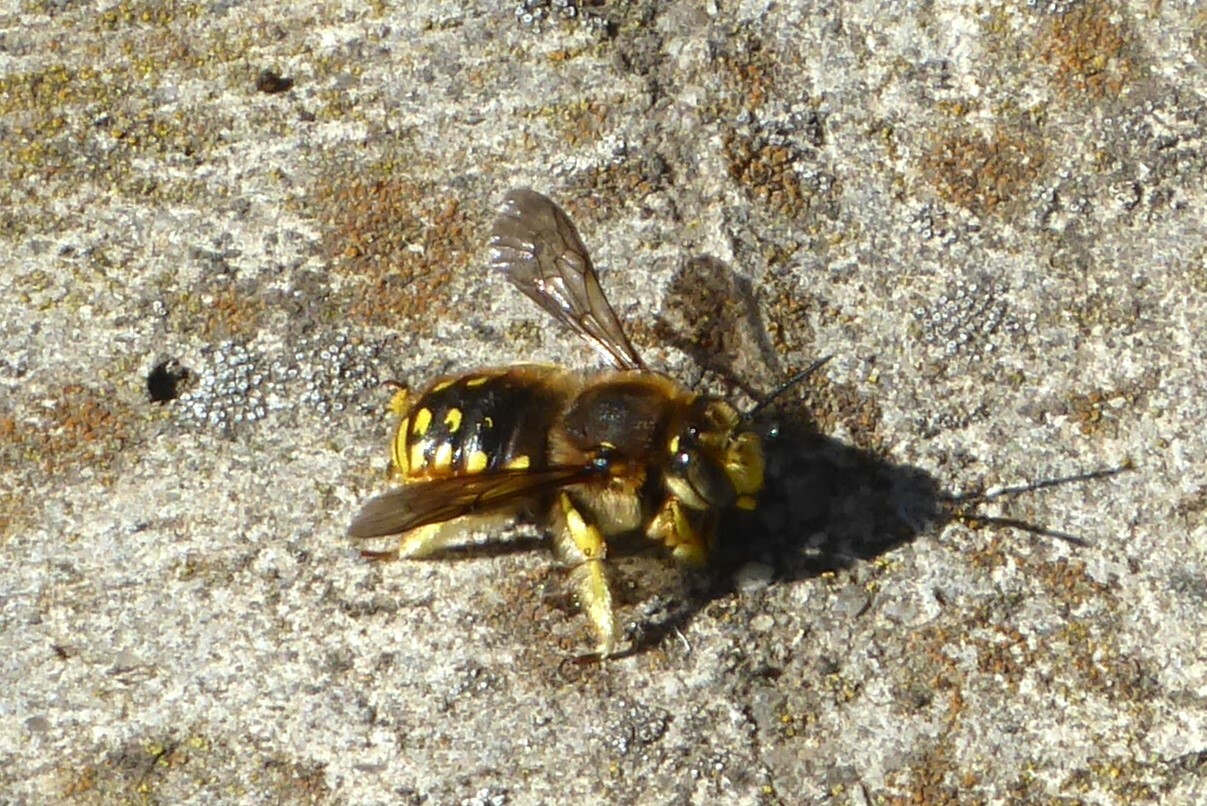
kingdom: Animalia
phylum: Arthropoda
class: Insecta
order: Hymenoptera
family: Megachilidae
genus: Anthidium
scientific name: Anthidium manicatum
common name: Wool carder bee
